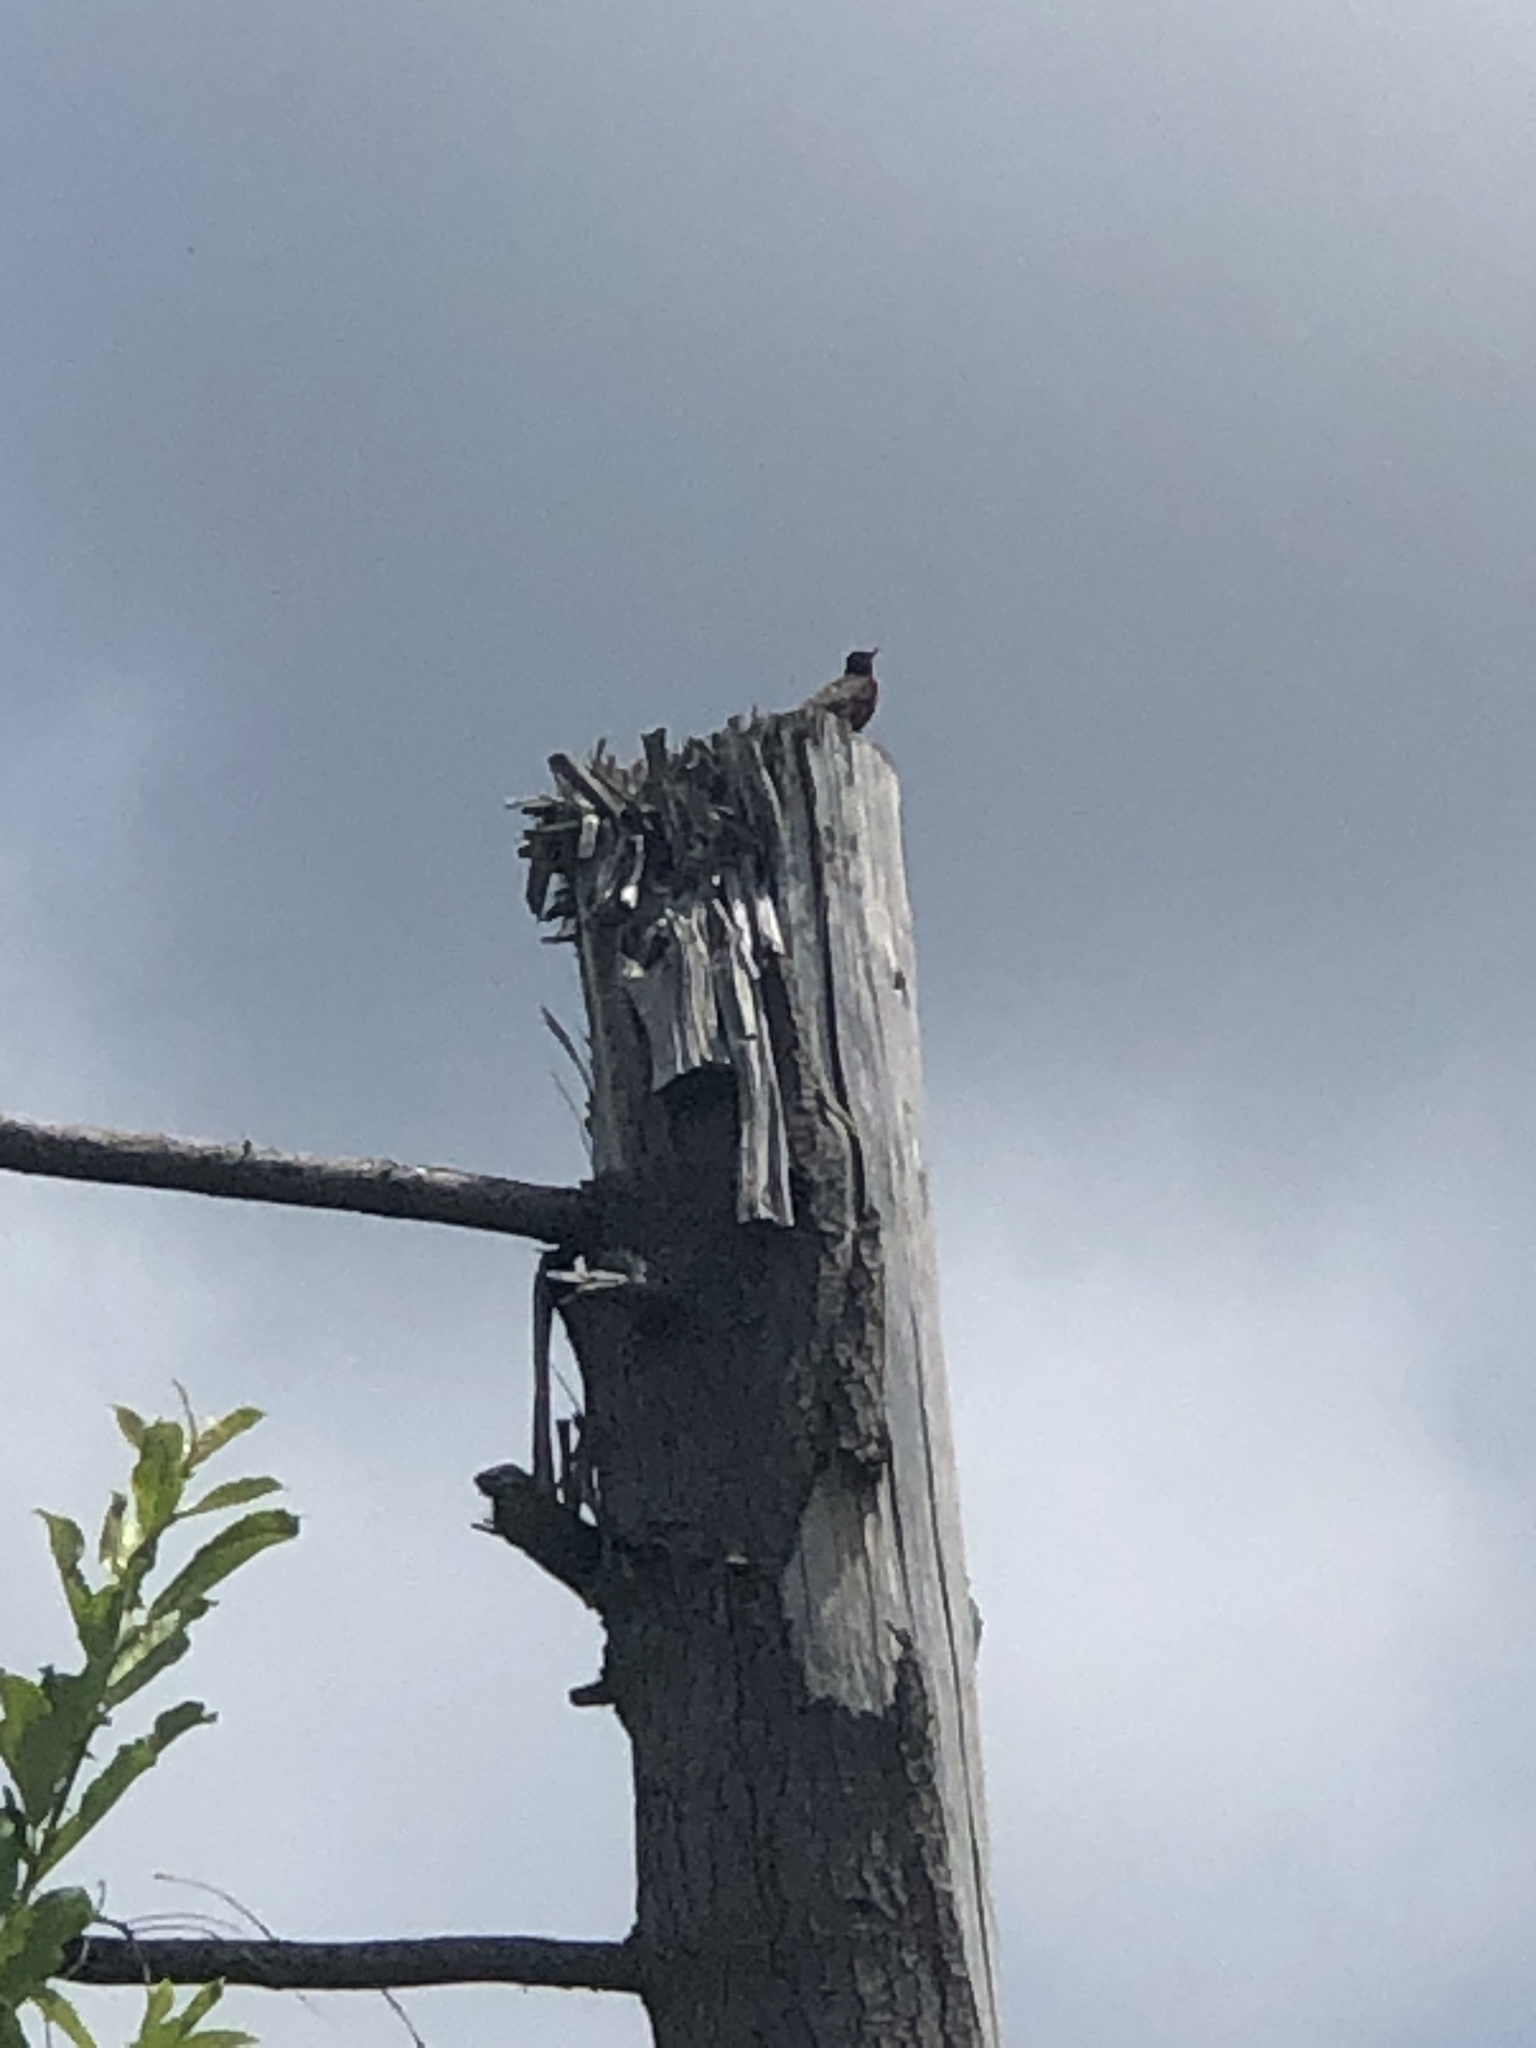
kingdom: Animalia
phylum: Chordata
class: Aves
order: Passeriformes
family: Turdidae
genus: Turdus
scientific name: Turdus migratorius
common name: American robin
